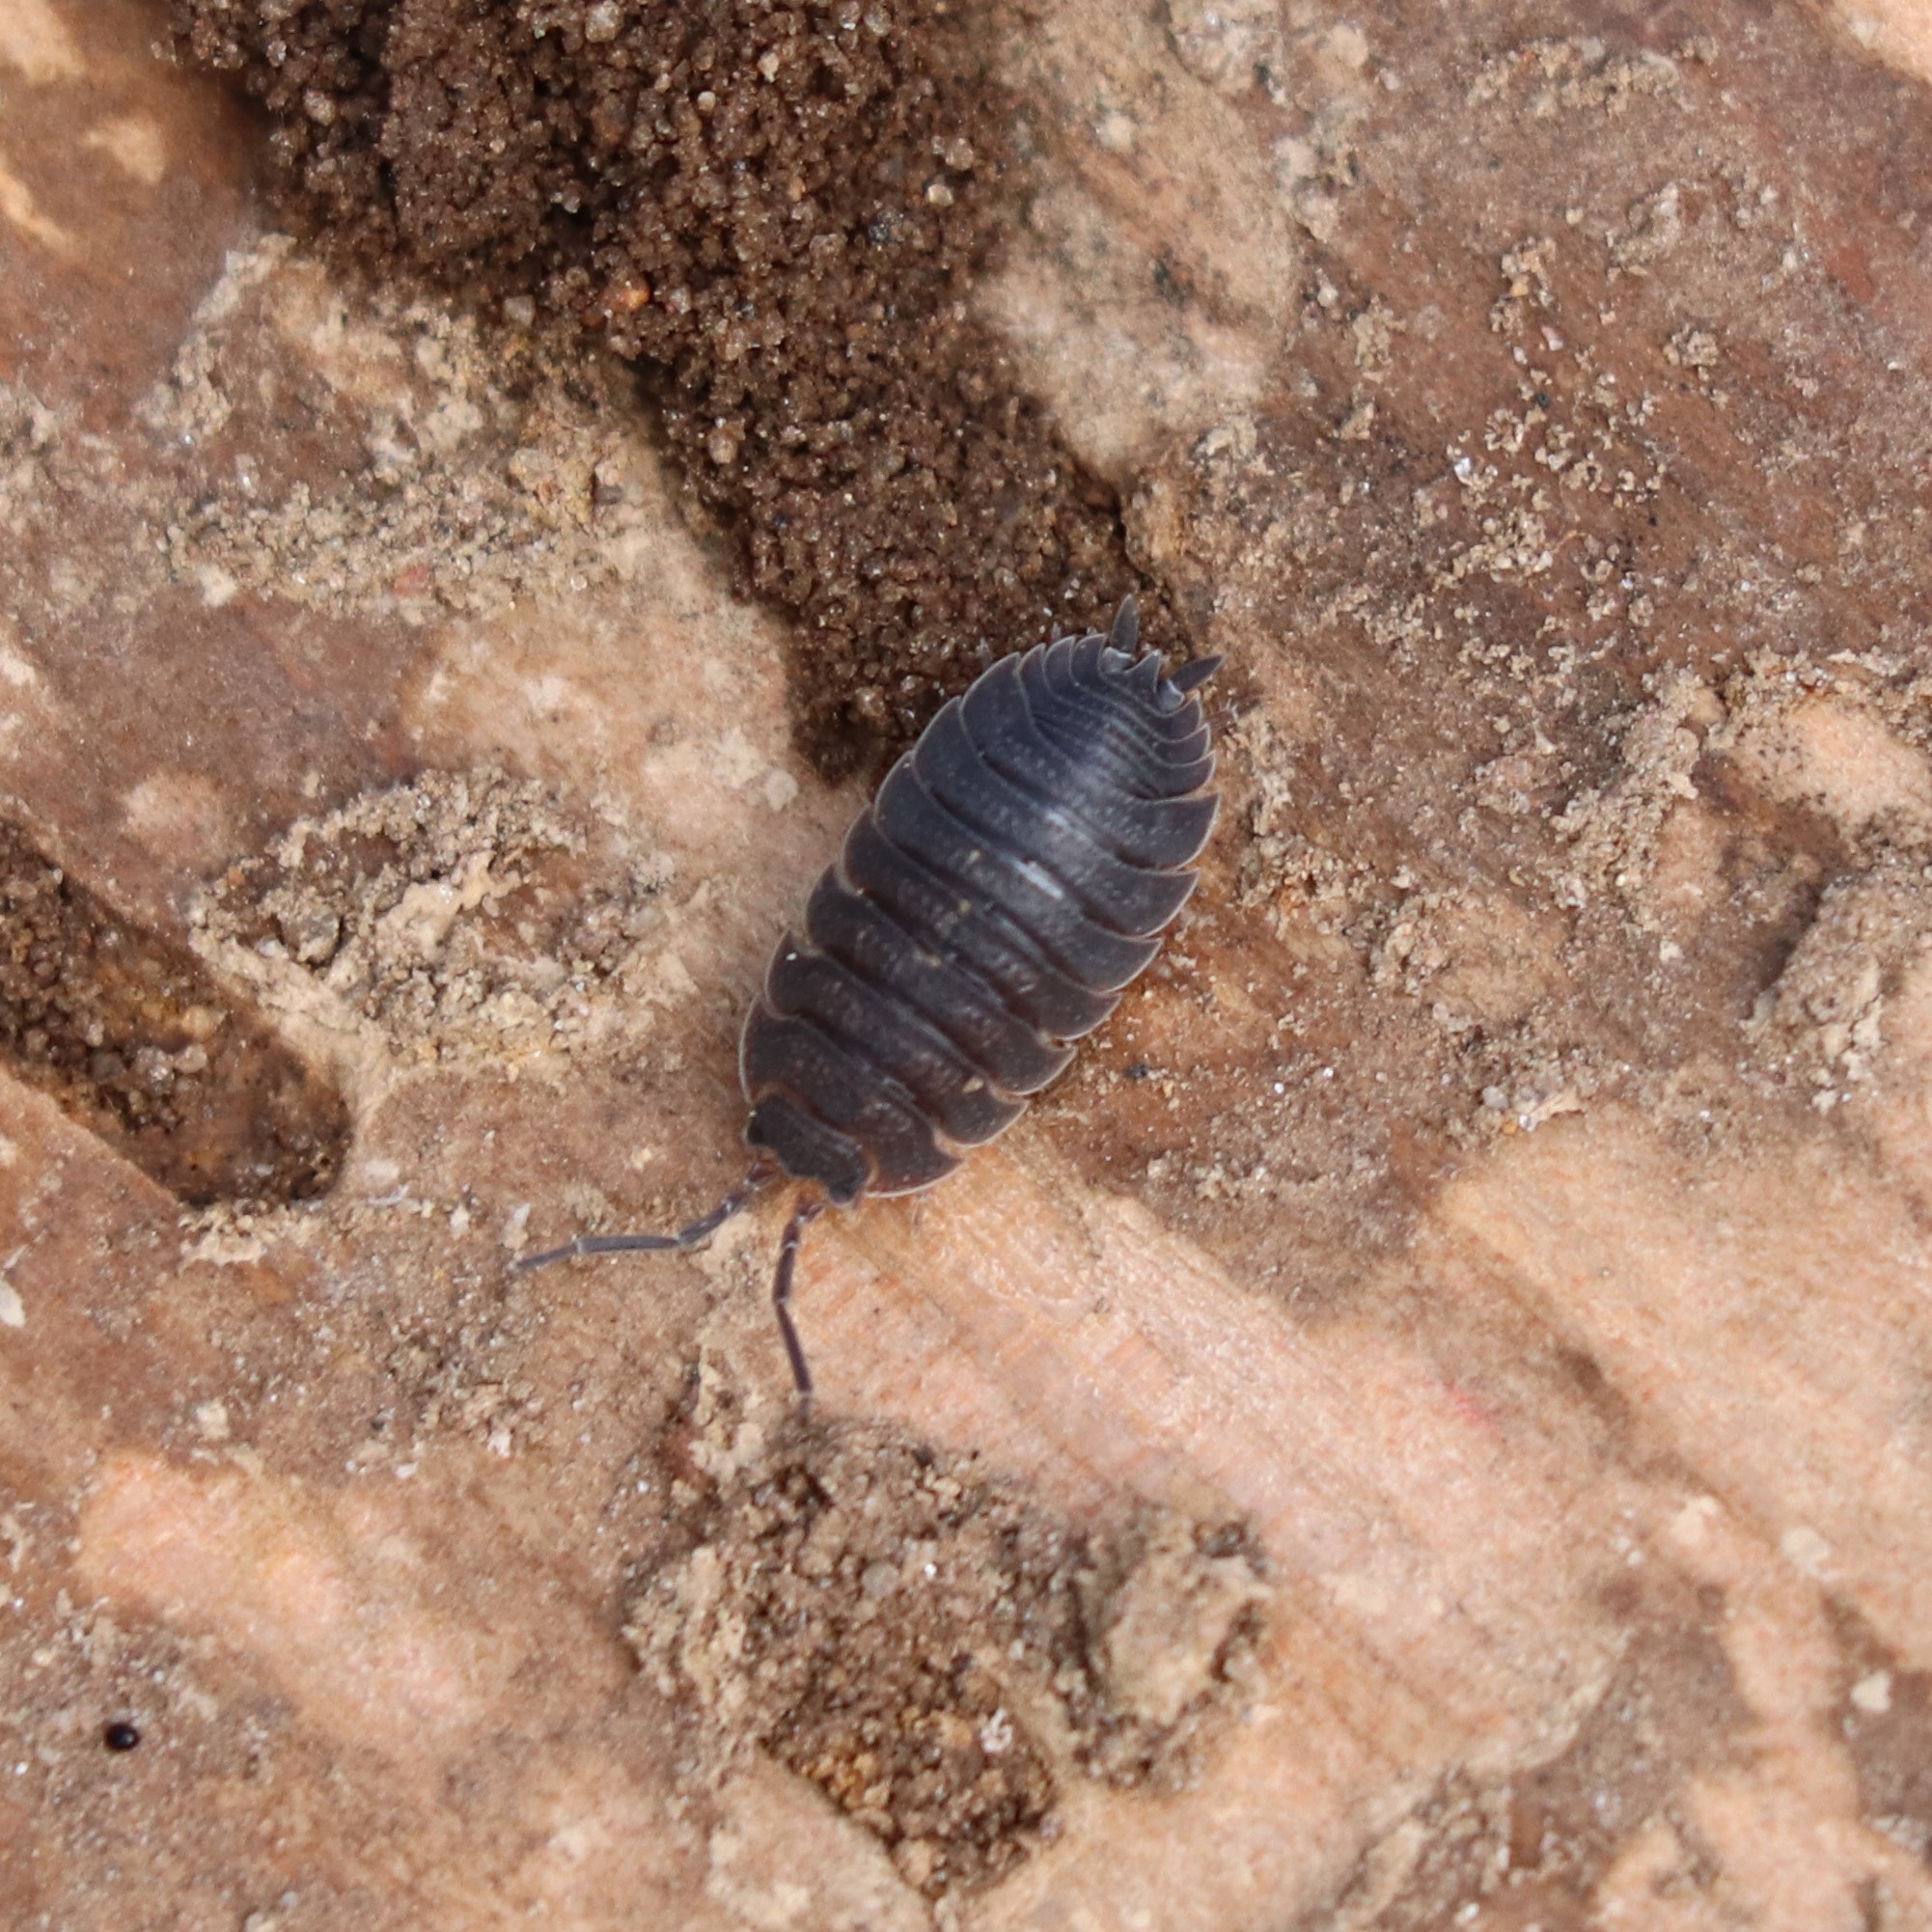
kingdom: Animalia
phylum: Arthropoda
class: Malacostraca
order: Isopoda
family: Porcellionidae
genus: Porcellio
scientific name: Porcellio scaber
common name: Common rough woodlouse
